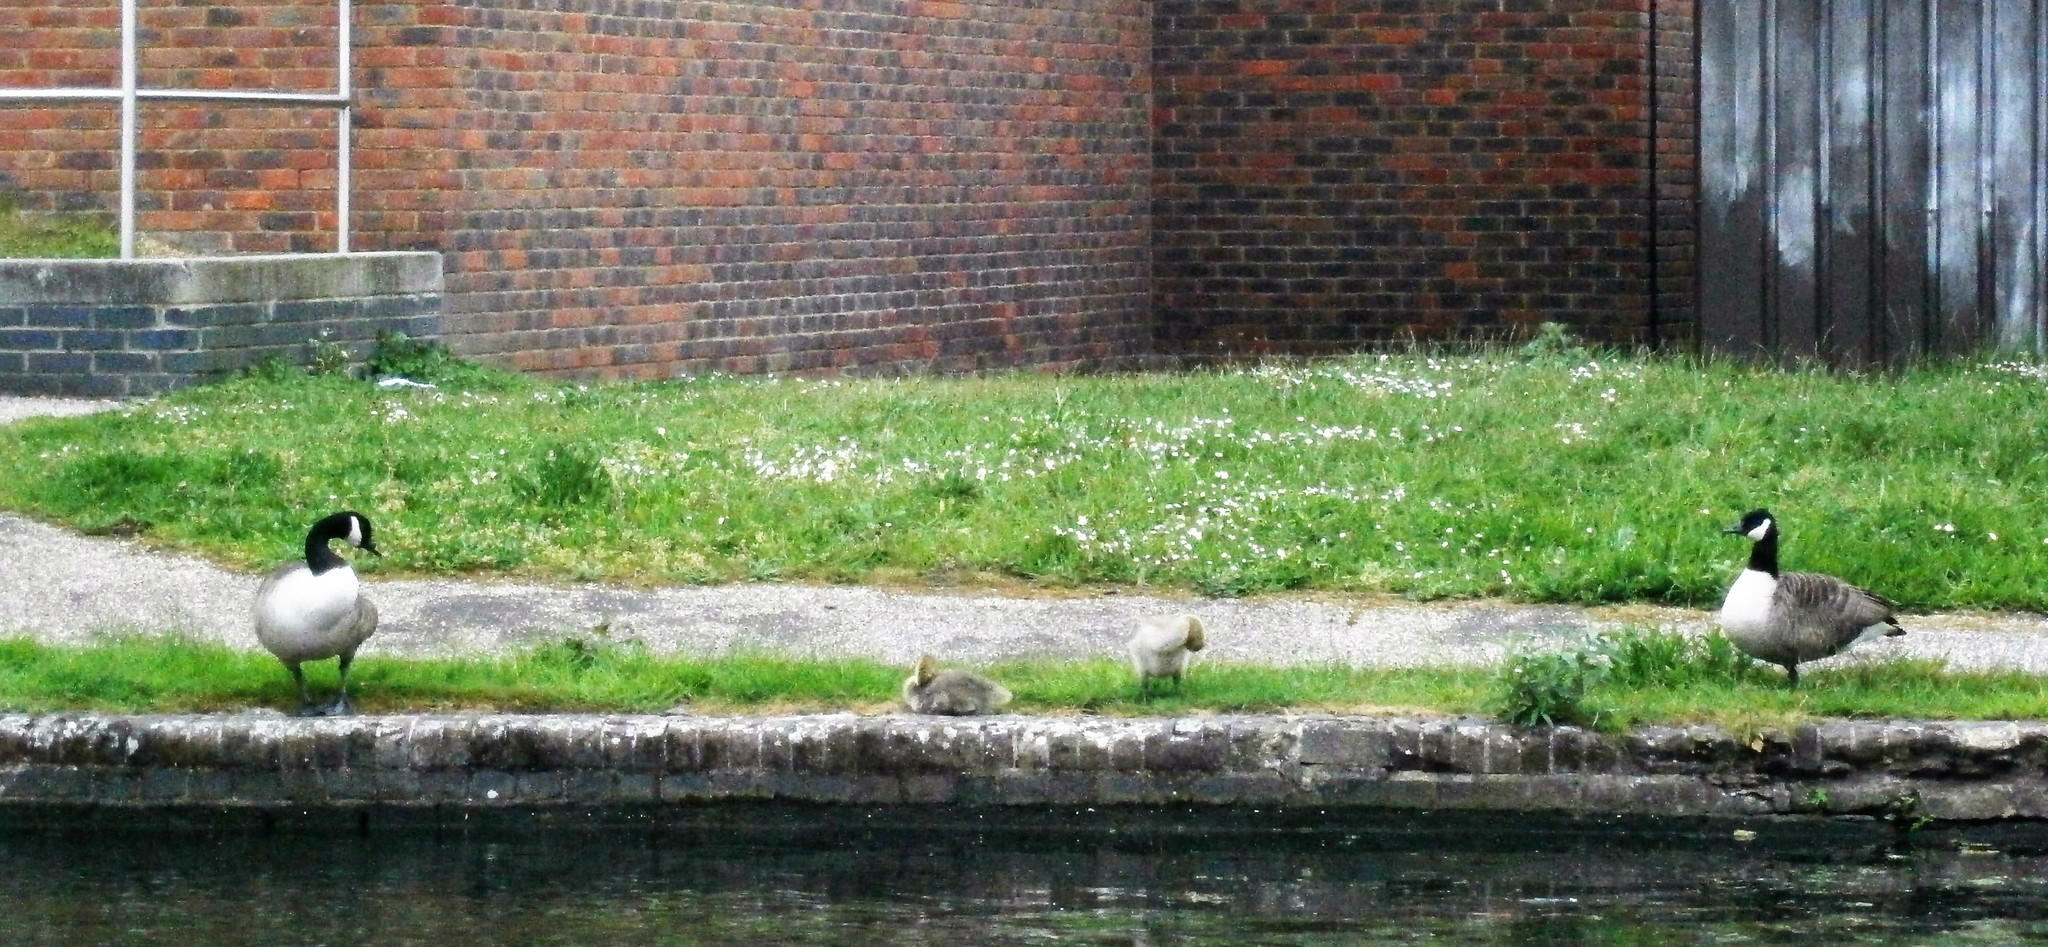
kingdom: Animalia
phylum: Chordata
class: Aves
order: Anseriformes
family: Anatidae
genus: Branta
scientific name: Branta canadensis
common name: Canada goose
